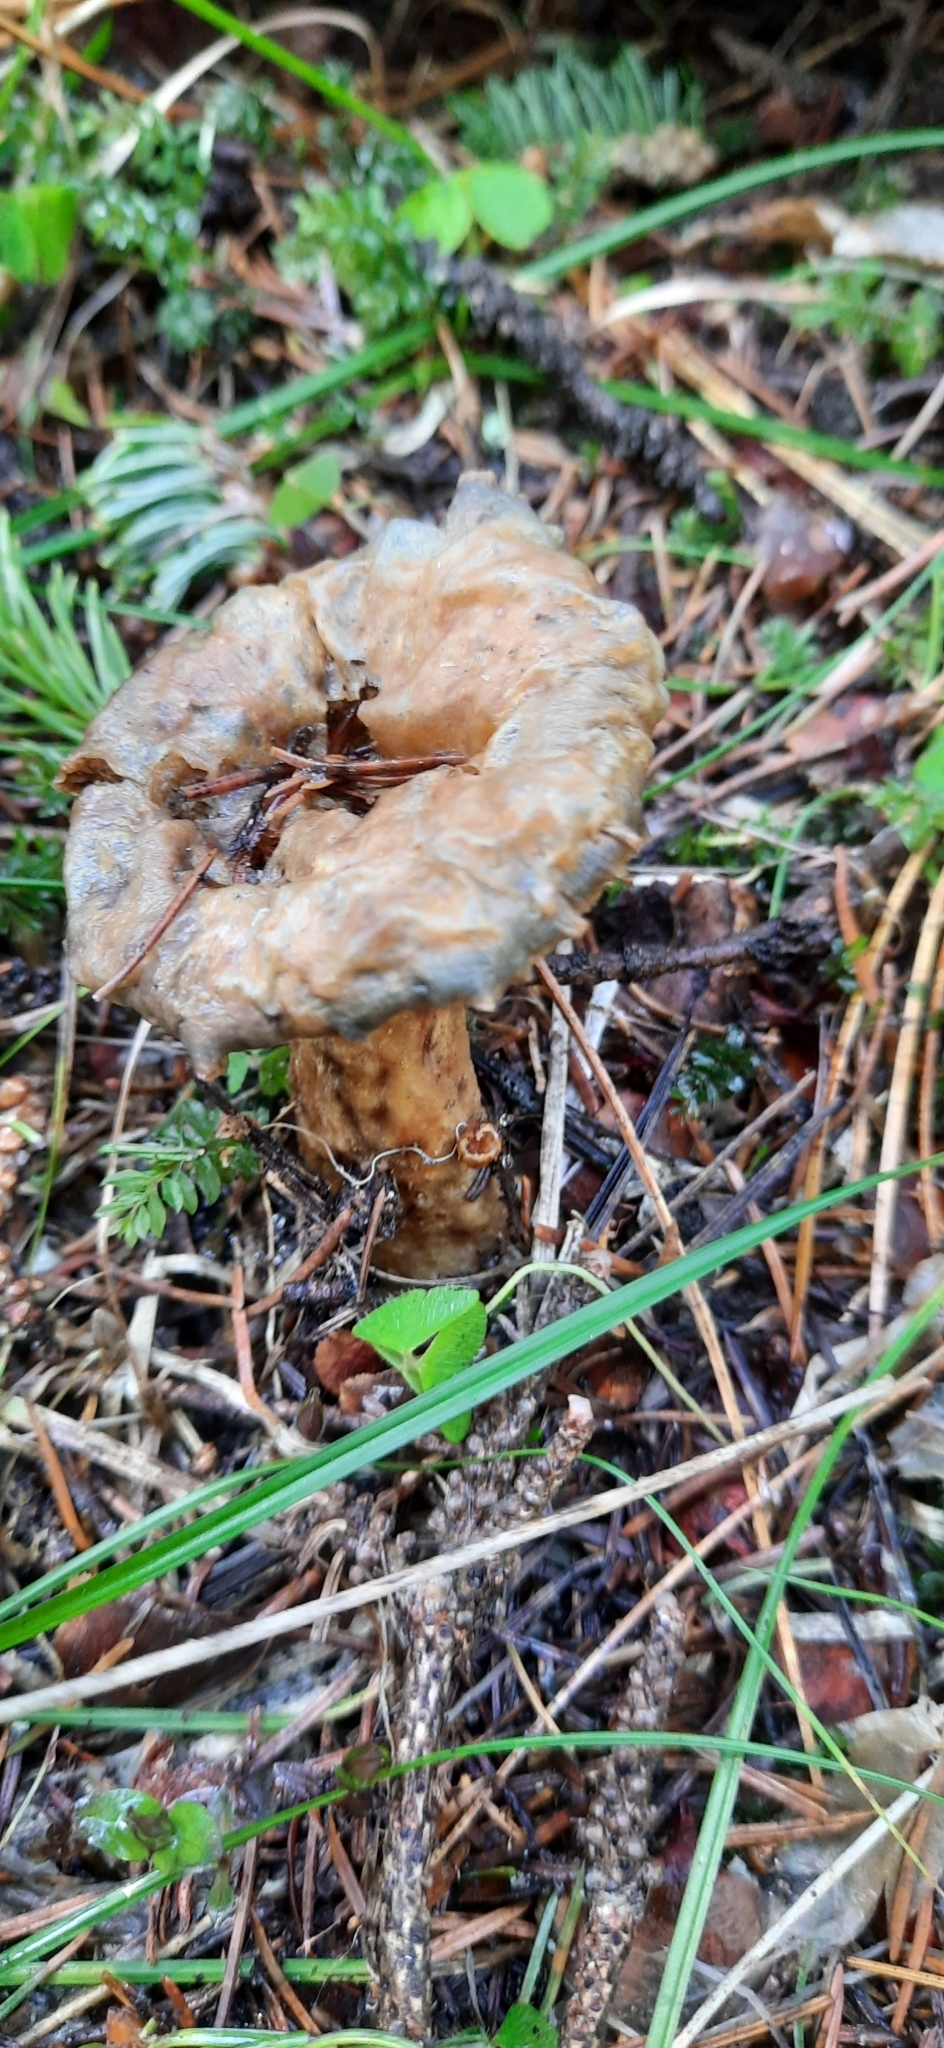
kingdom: Fungi
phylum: Basidiomycota
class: Agaricomycetes
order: Russulales
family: Russulaceae
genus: Lactarius
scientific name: Lactarius deterrimus
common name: False saffron milkcap
